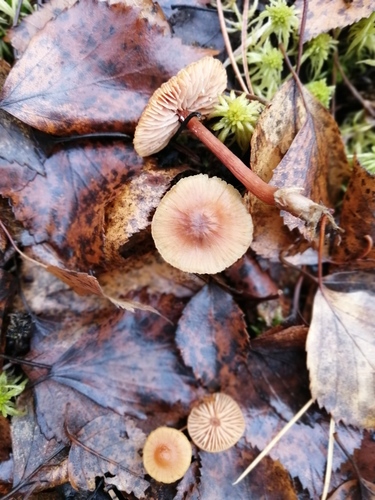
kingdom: Fungi
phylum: Basidiomycota
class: Agaricomycetes
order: Agaricales
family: Hydnangiaceae
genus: Laccaria
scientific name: Laccaria laccata
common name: Deceiver
